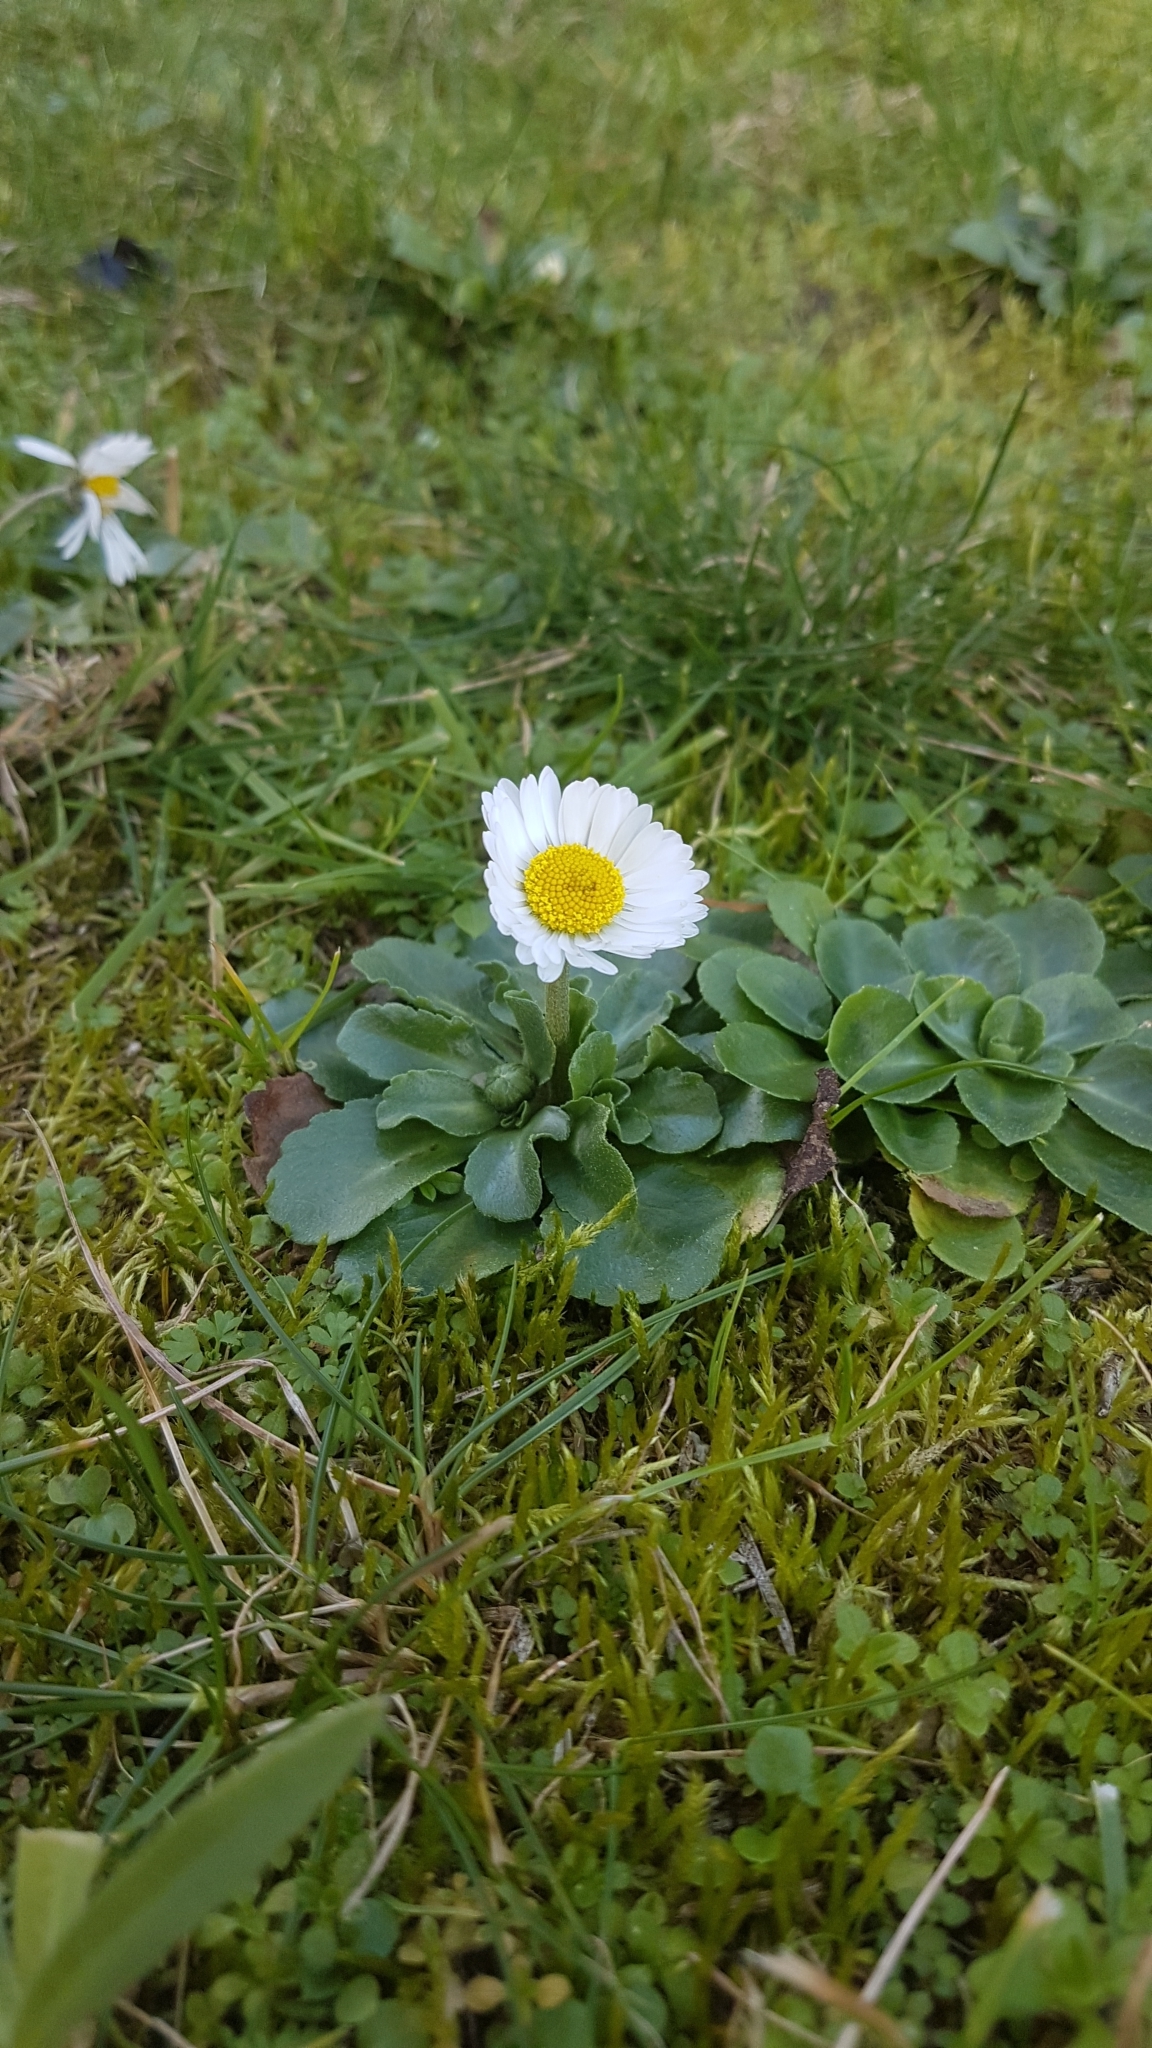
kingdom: Plantae
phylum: Tracheophyta
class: Magnoliopsida
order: Asterales
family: Asteraceae
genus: Bellis
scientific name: Bellis perennis
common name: Lawndaisy
